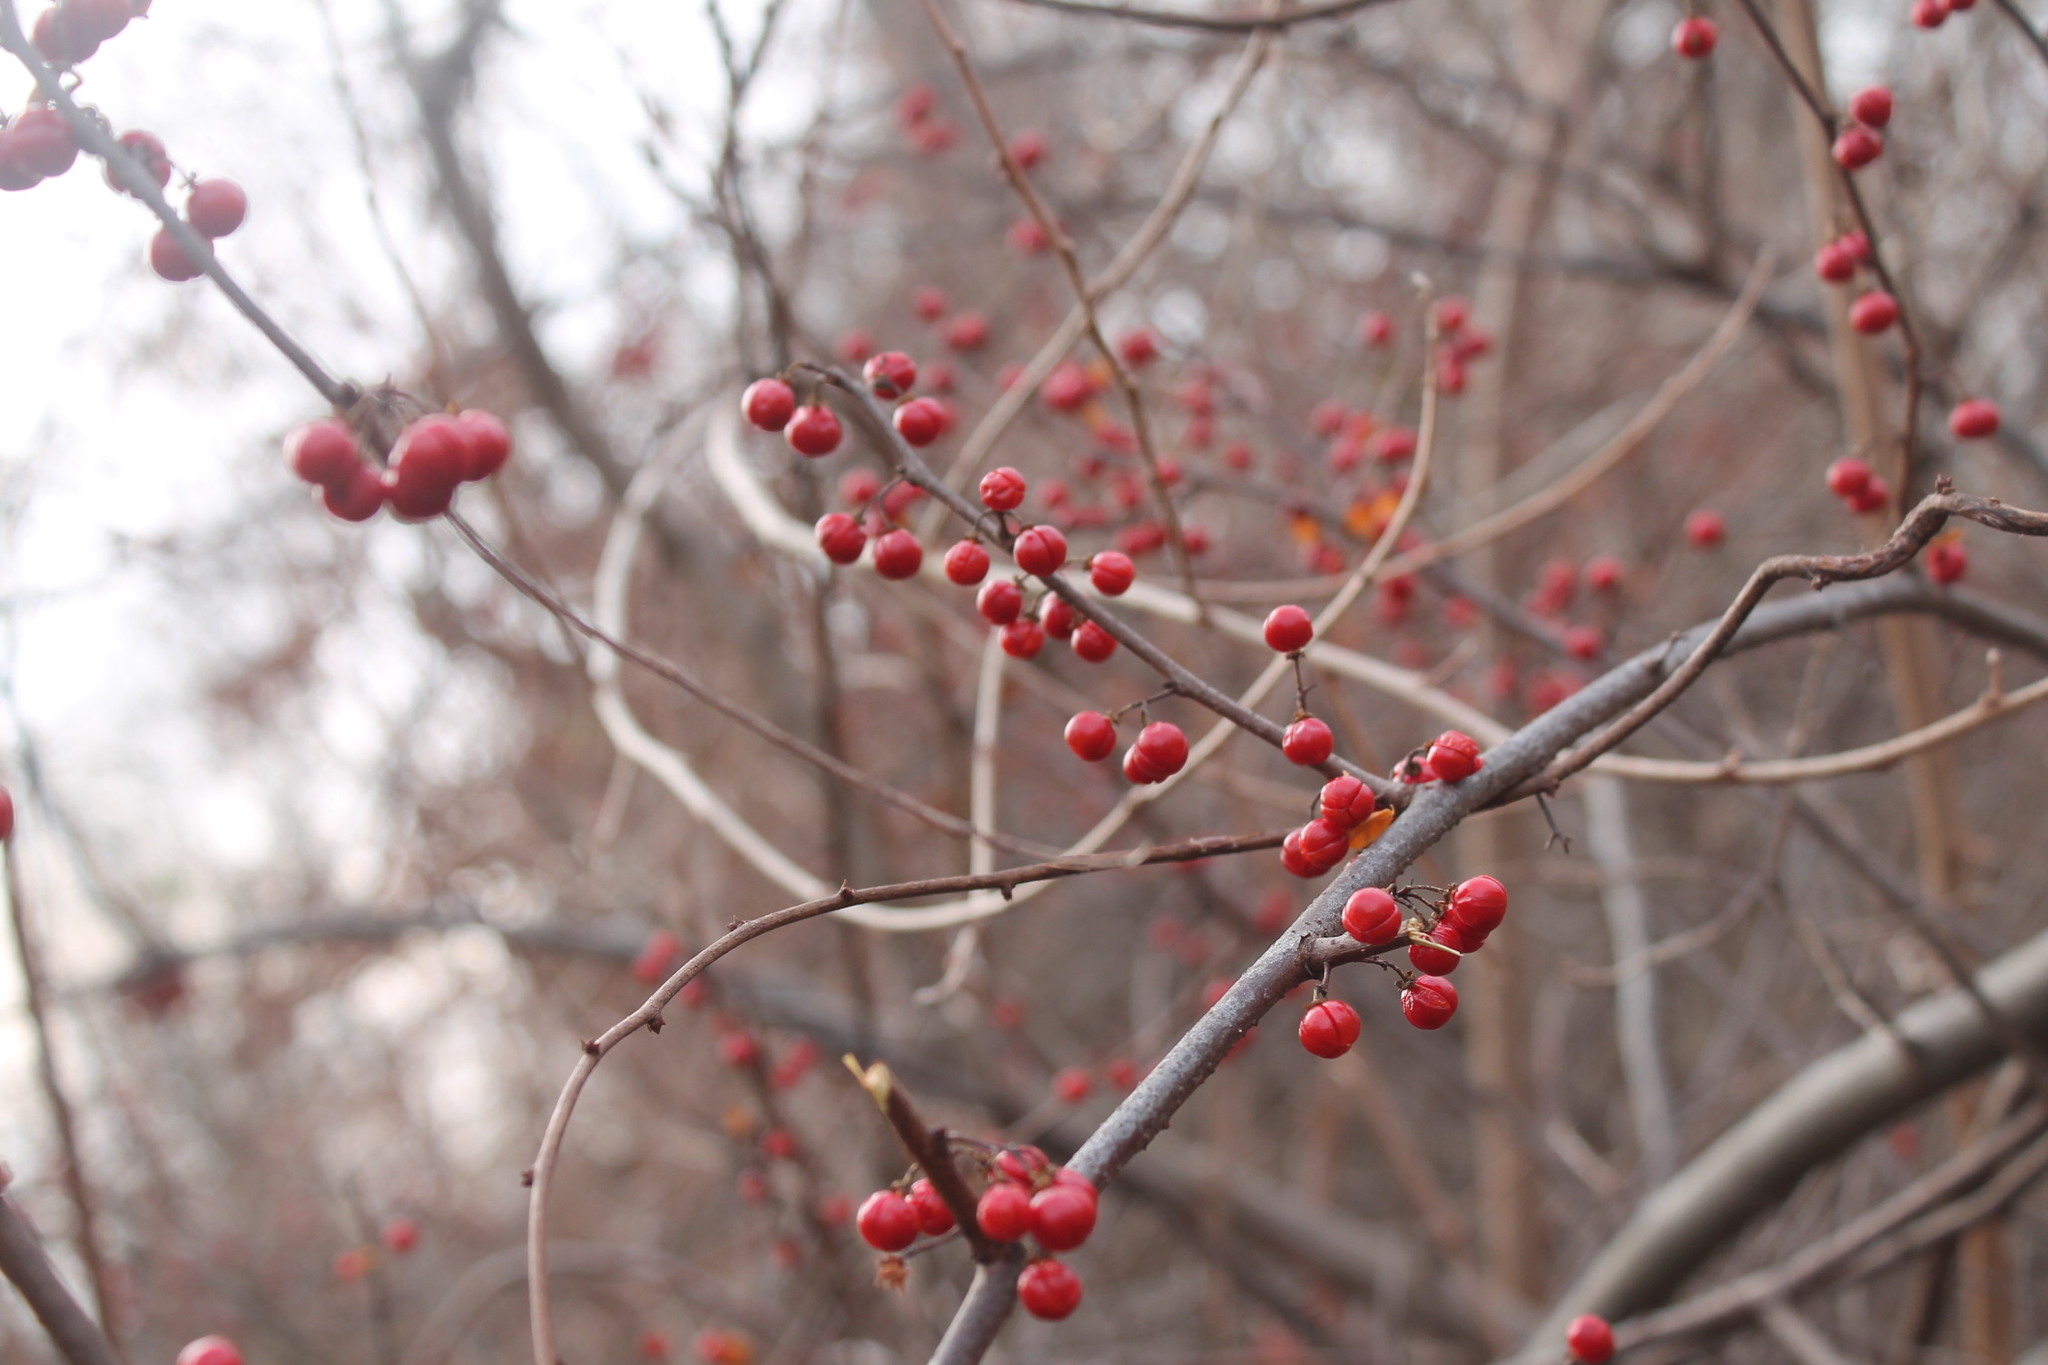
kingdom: Plantae
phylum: Tracheophyta
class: Magnoliopsida
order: Celastrales
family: Celastraceae
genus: Celastrus
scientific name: Celastrus orbiculatus
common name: Oriental bittersweet
